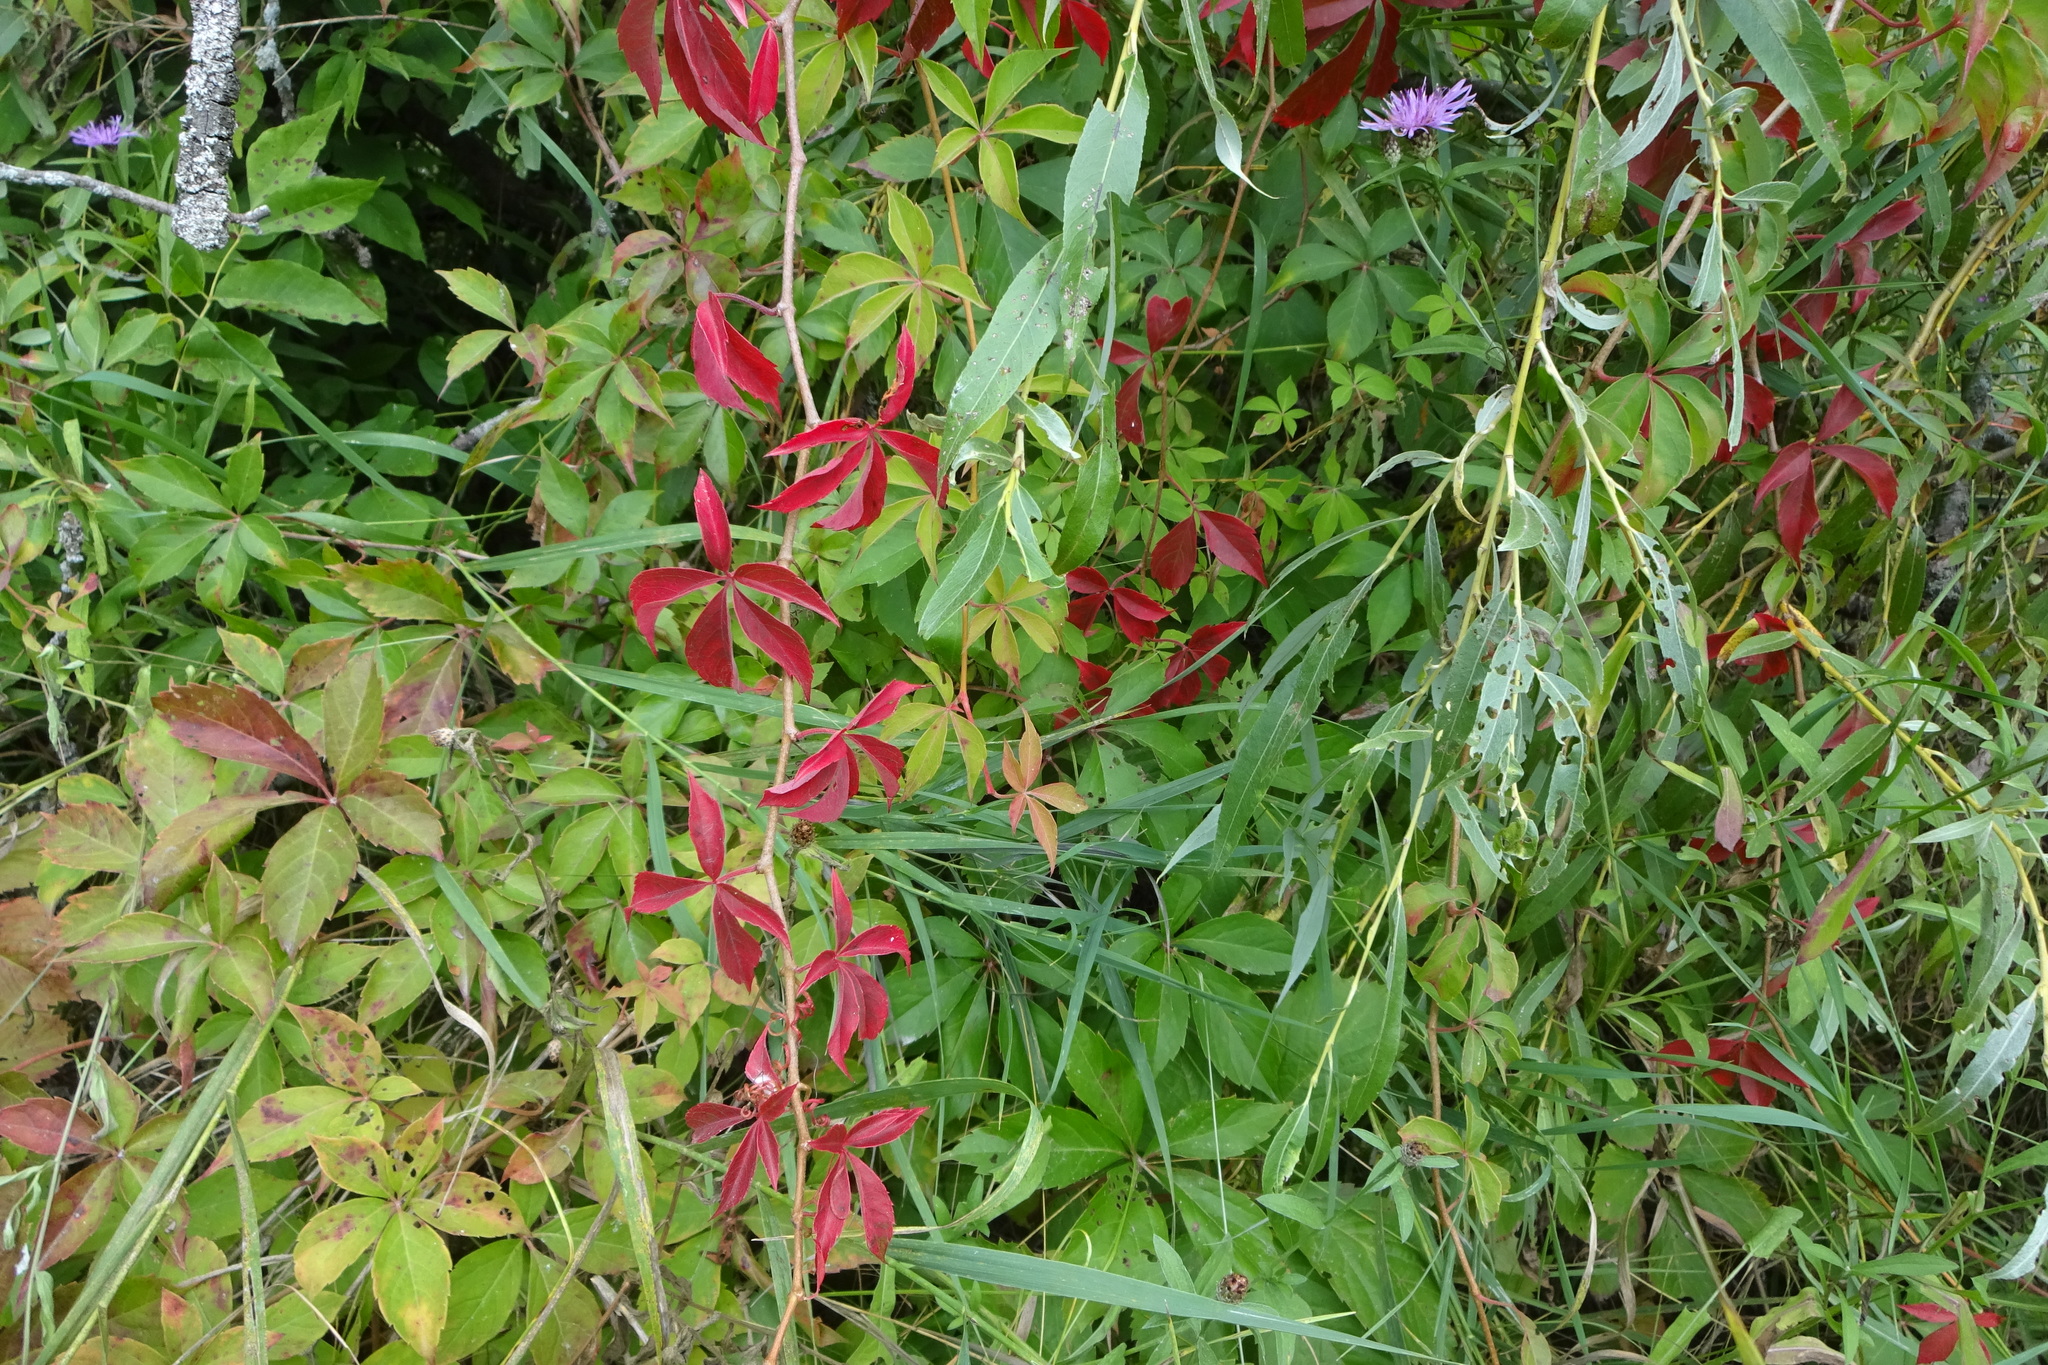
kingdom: Plantae
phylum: Tracheophyta
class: Magnoliopsida
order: Vitales
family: Vitaceae
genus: Parthenocissus
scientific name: Parthenocissus quinquefolia
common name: Virginia-creeper
